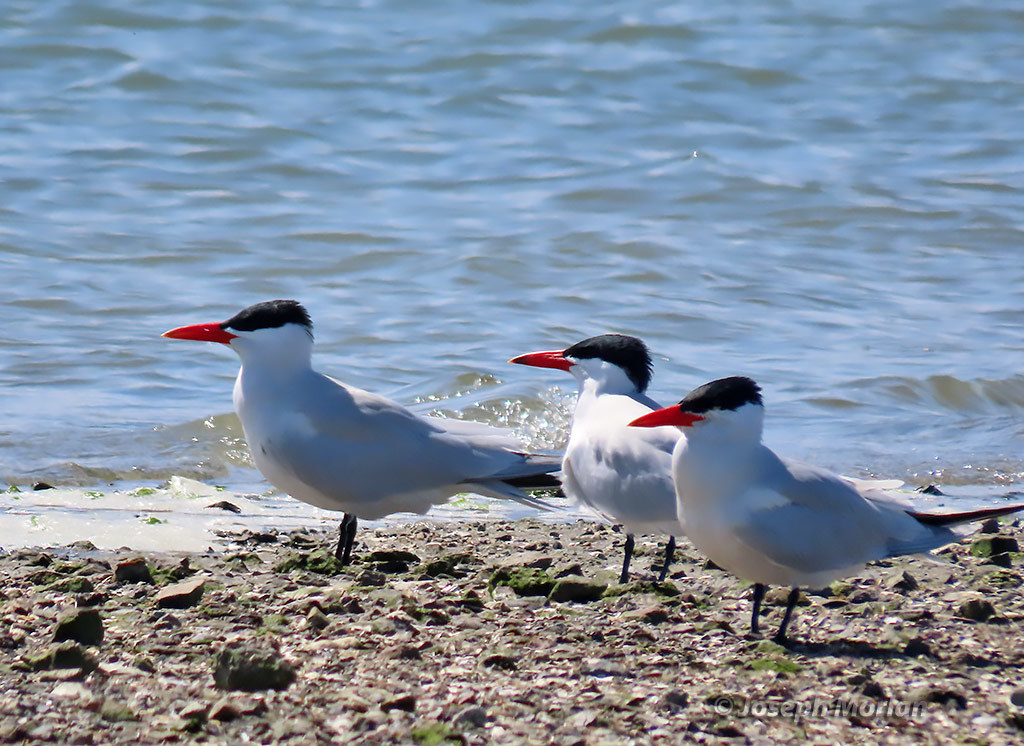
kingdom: Animalia
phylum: Chordata
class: Aves
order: Charadriiformes
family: Laridae
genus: Hydroprogne
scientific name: Hydroprogne caspia
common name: Caspian tern
